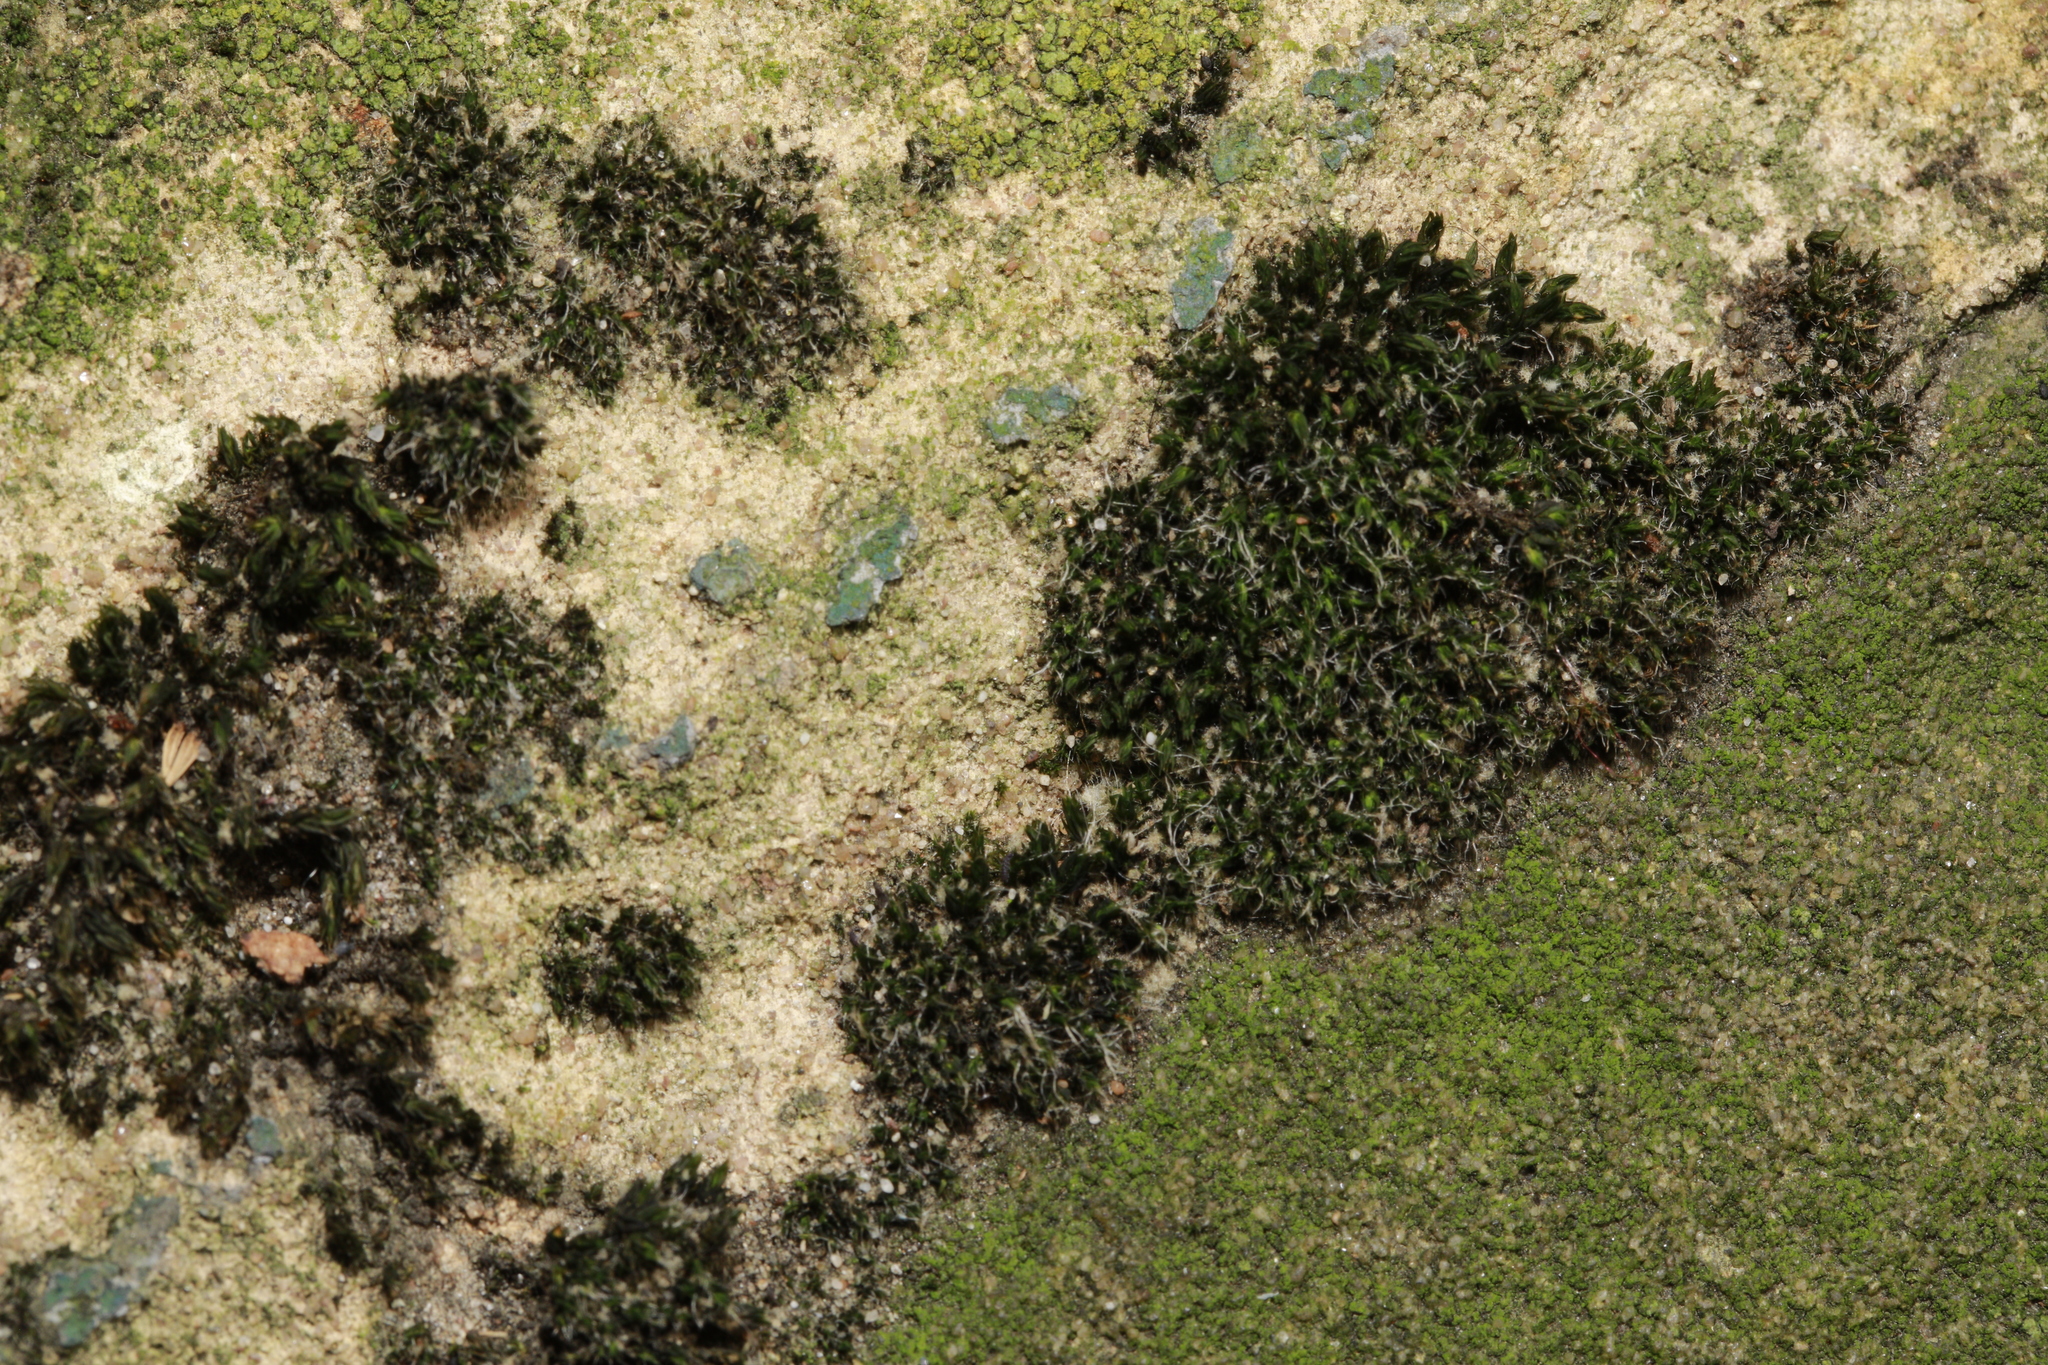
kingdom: Plantae
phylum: Bryophyta
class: Bryopsida
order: Grimmiales
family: Grimmiaceae
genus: Grimmia
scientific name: Grimmia pulvinata
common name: Grey-cushioned grimmia
